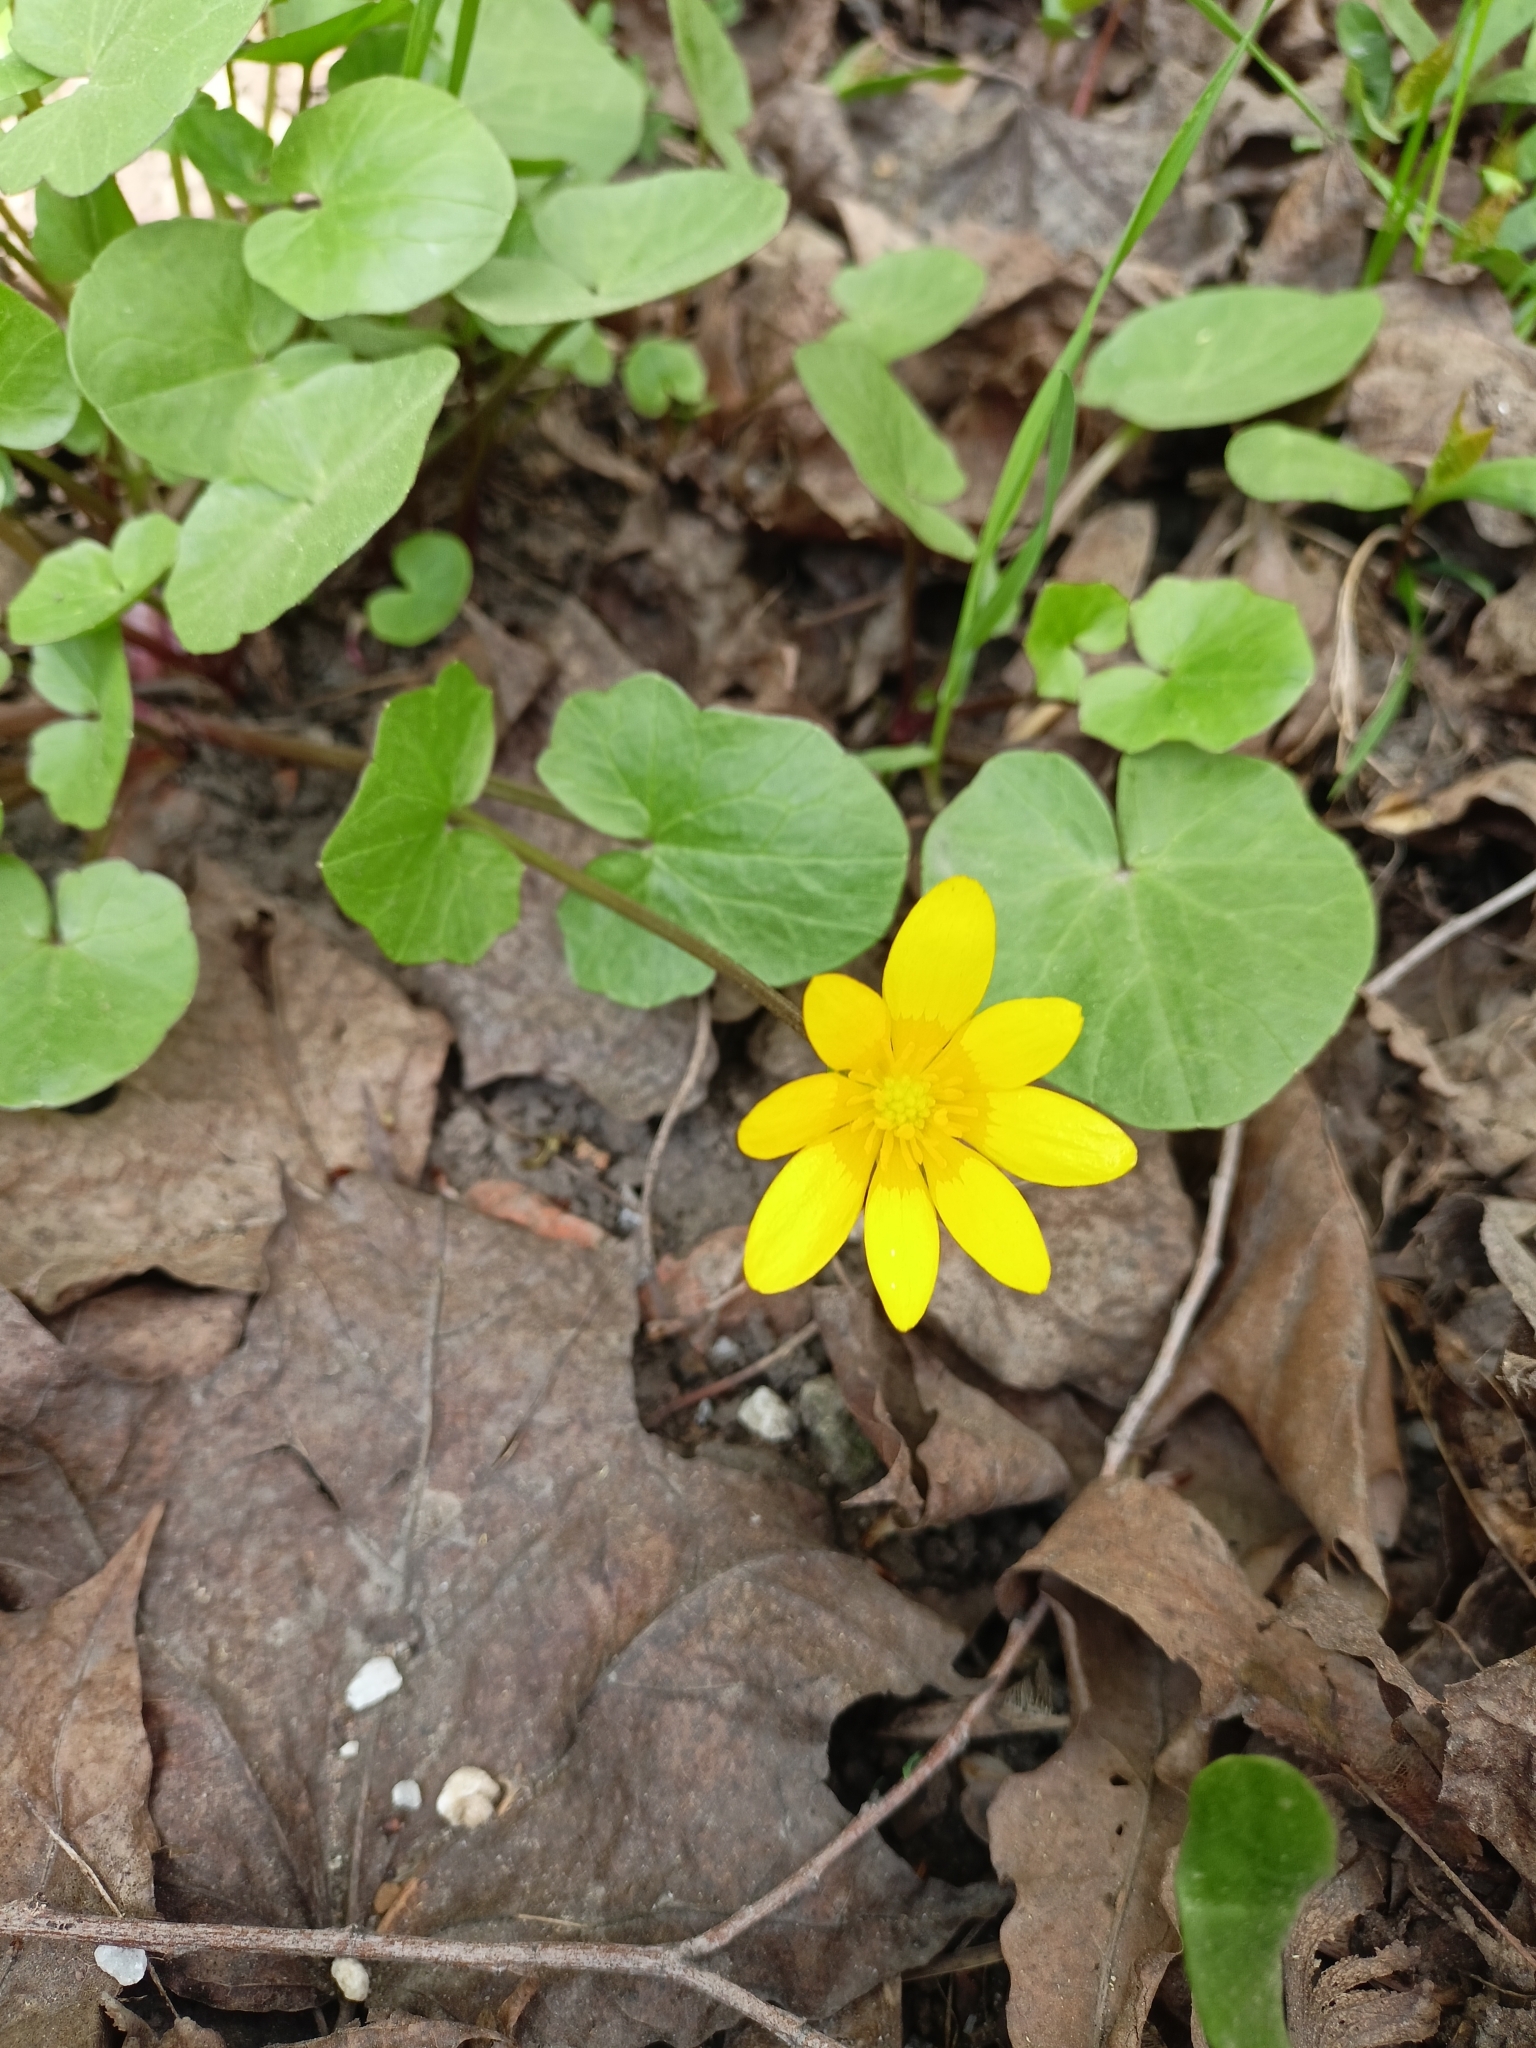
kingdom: Plantae
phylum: Tracheophyta
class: Magnoliopsida
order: Ranunculales
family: Ranunculaceae
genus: Ficaria
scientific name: Ficaria verna
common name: Lesser celandine
